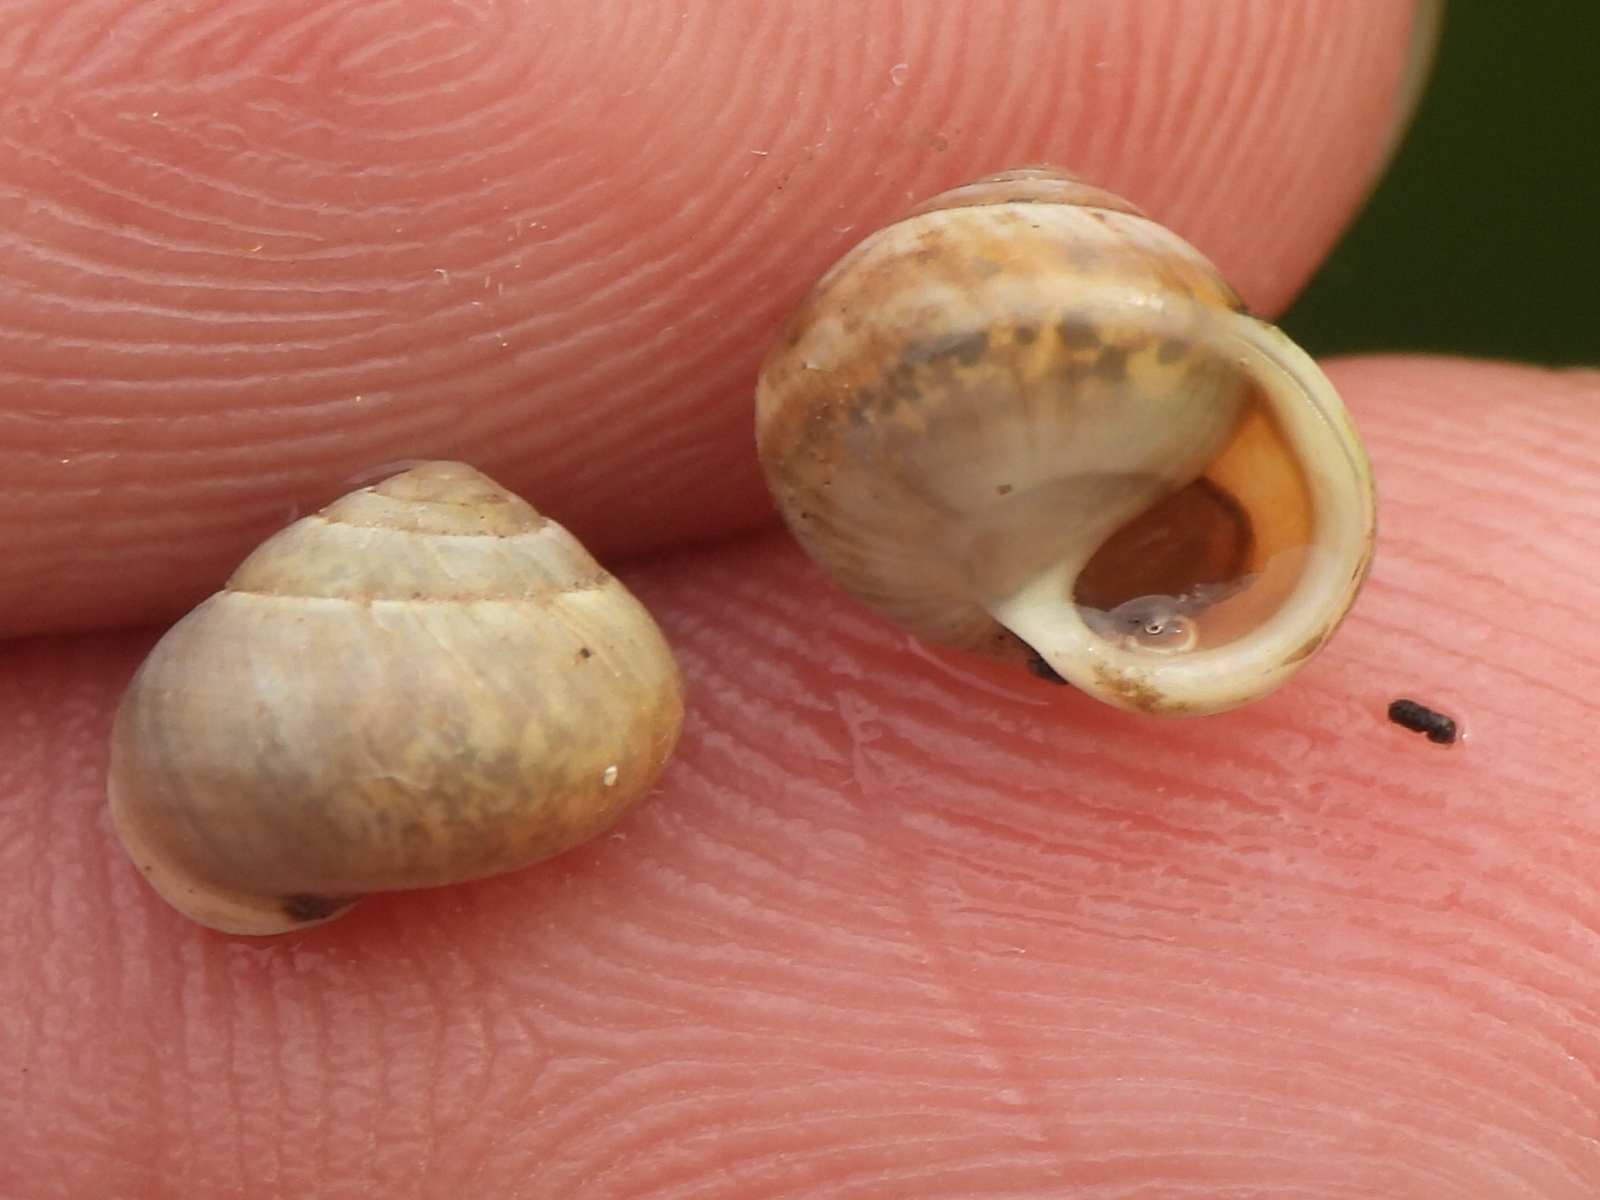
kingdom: Animalia
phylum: Mollusca
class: Gastropoda
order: Cycloneritida
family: Helicinidae
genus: Helicina
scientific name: Helicina orbiculata
